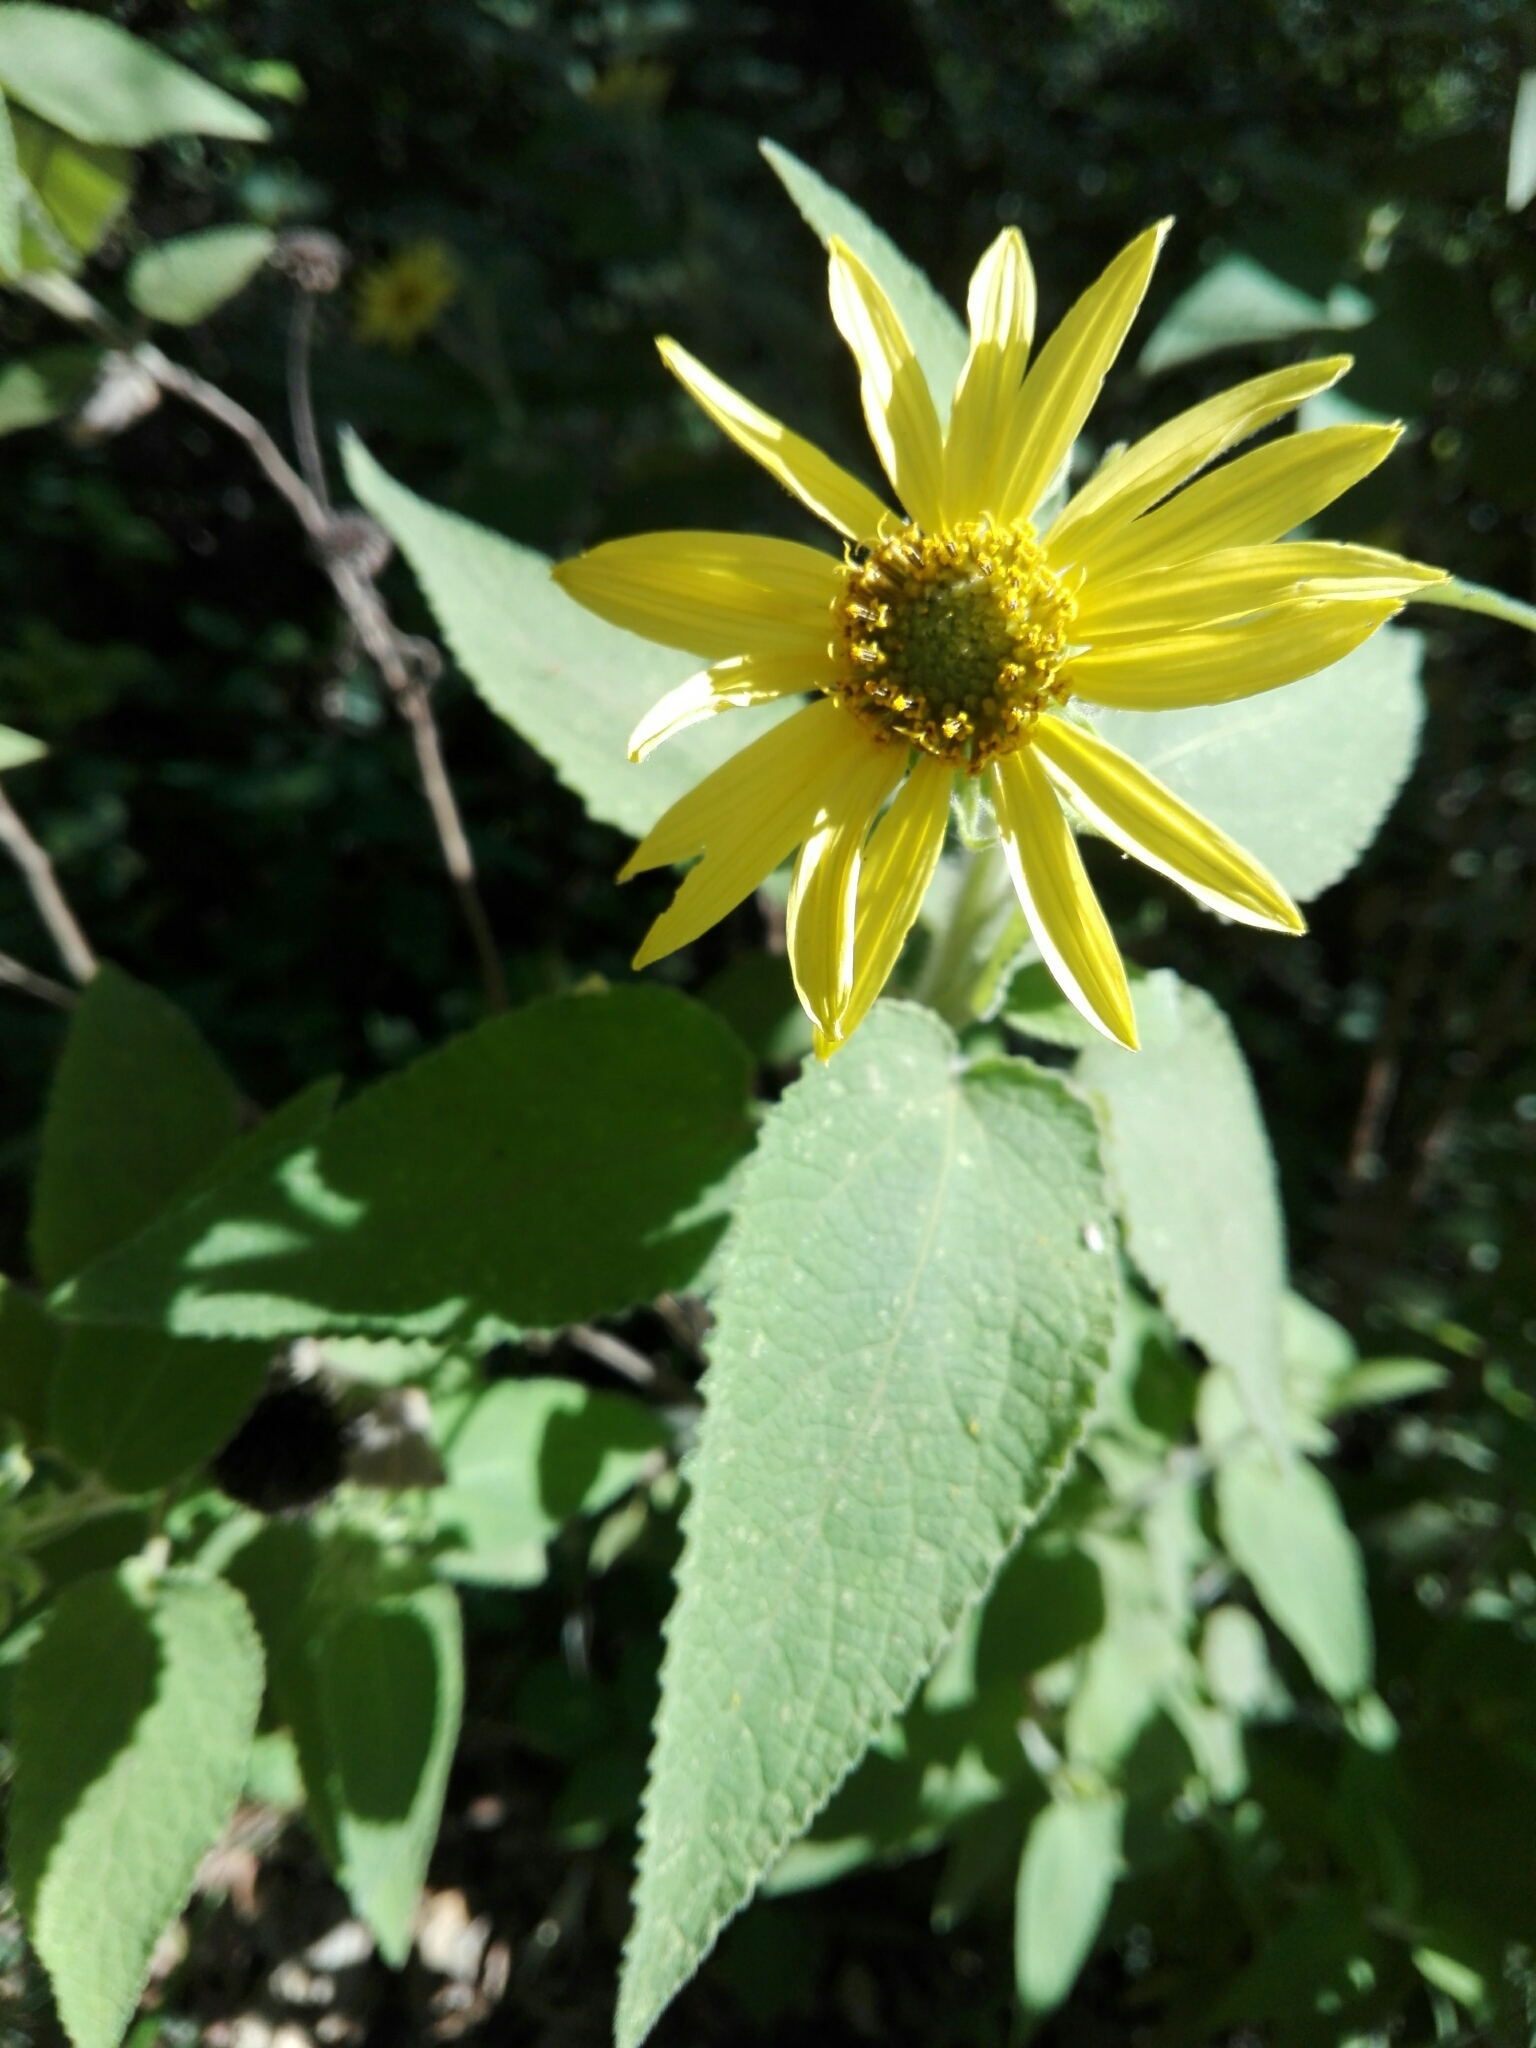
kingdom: Plantae
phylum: Tracheophyta
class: Magnoliopsida
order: Asterales
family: Asteraceae
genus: Vigethia
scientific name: Vigethia mexicana
